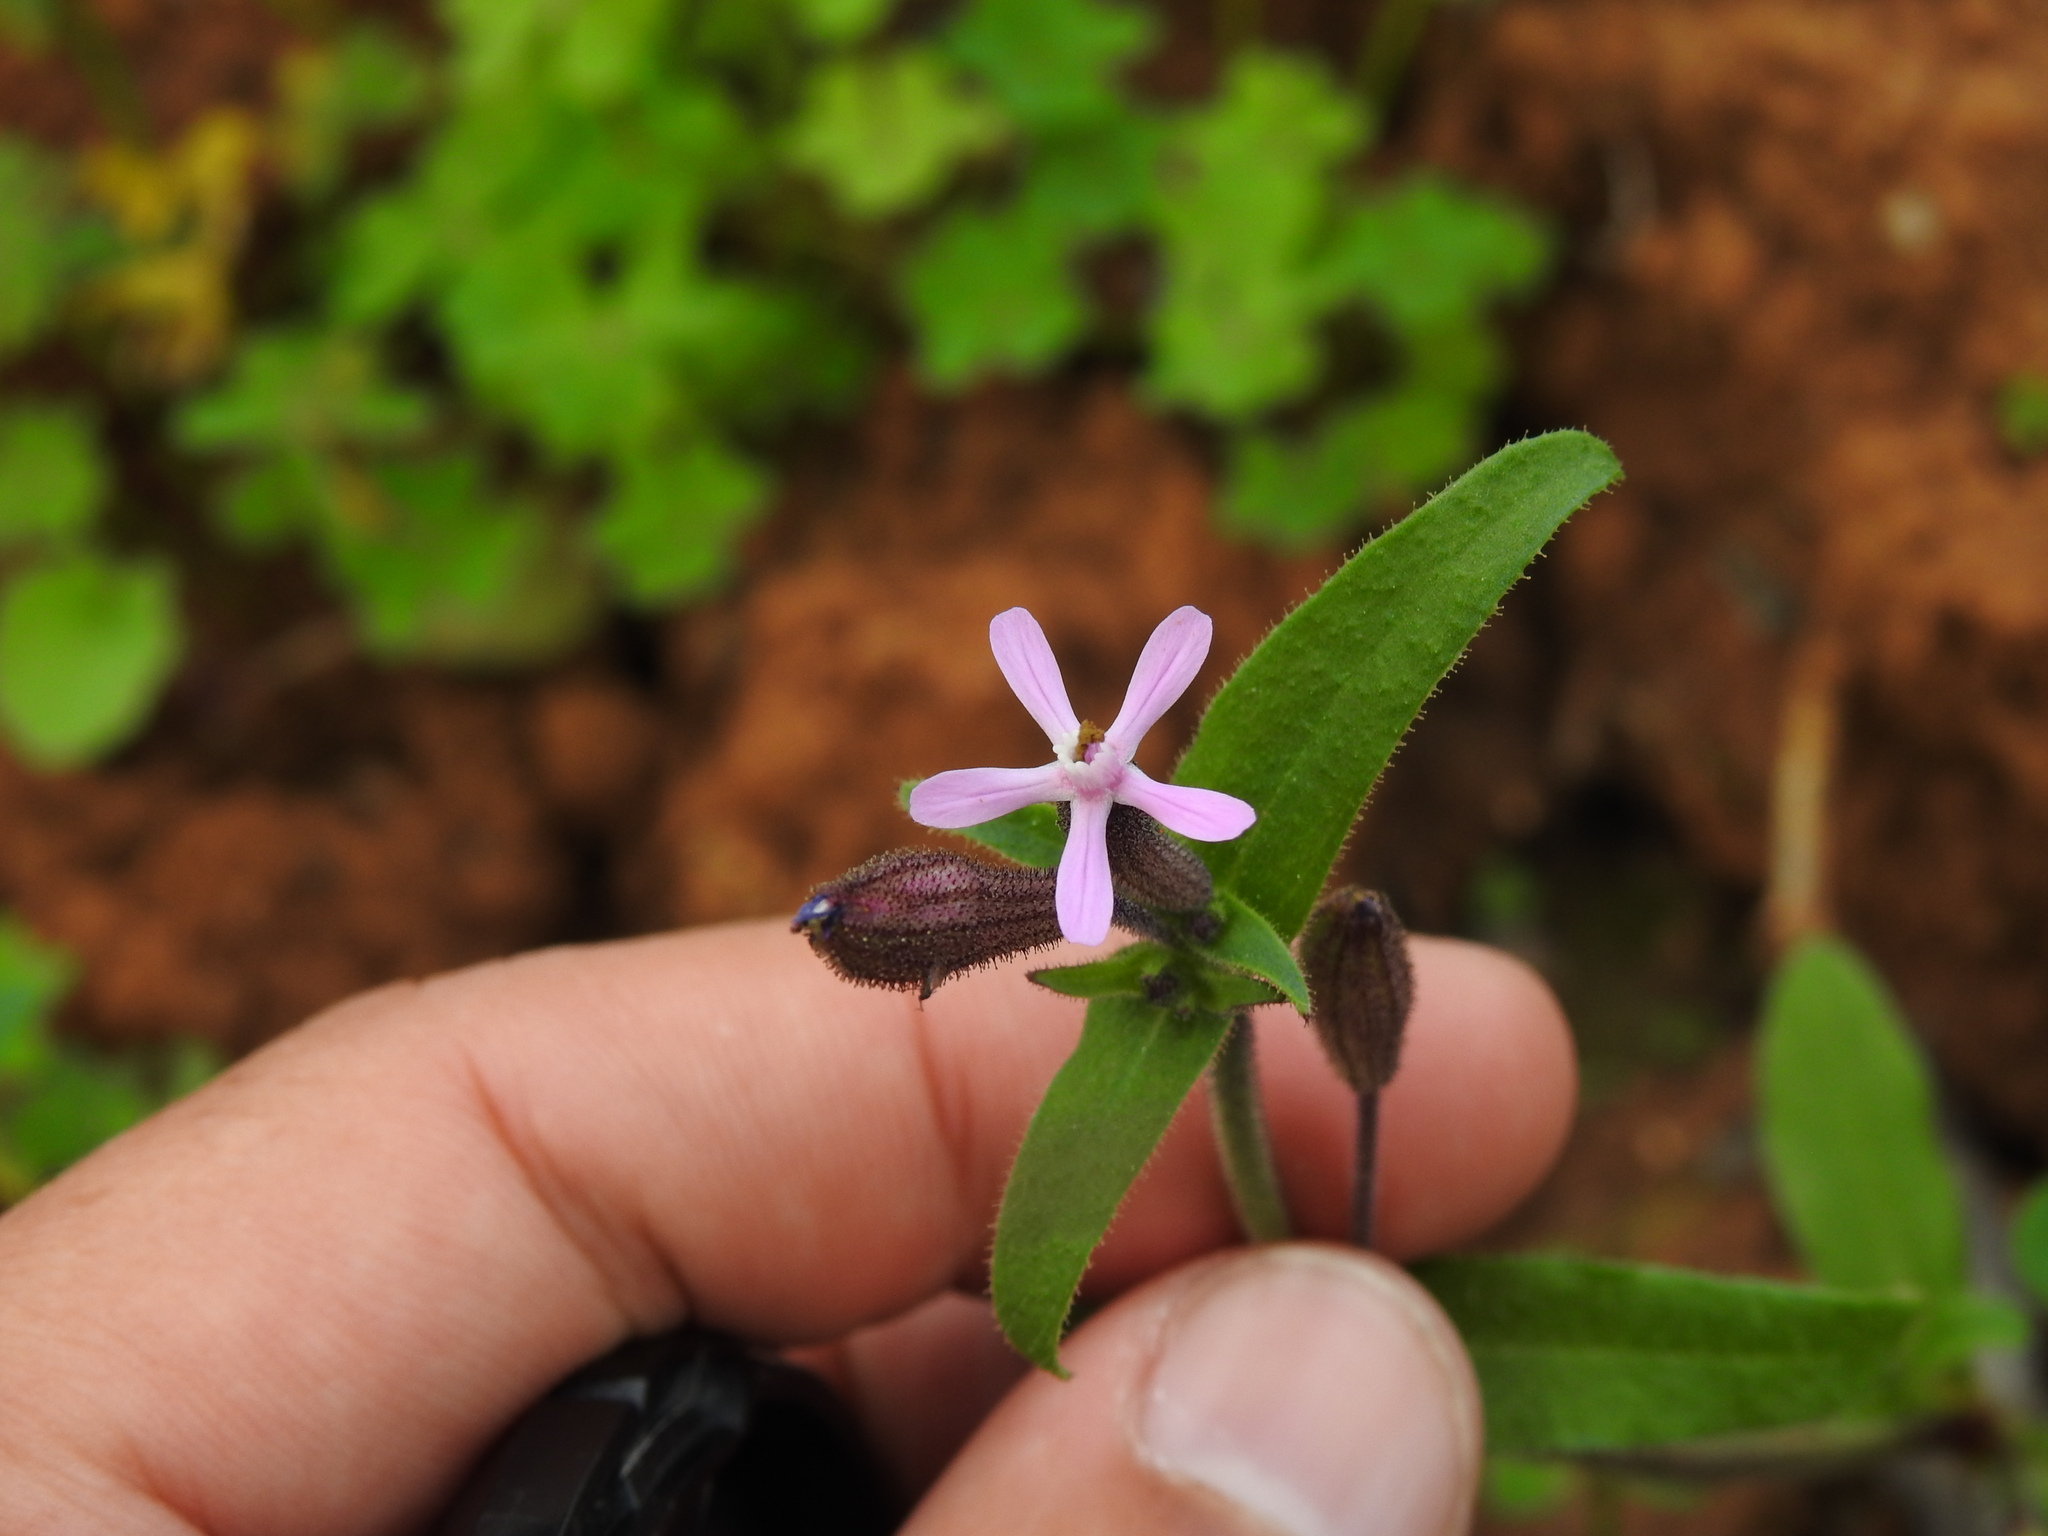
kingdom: Plantae
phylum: Tracheophyta
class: Magnoliopsida
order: Caryophyllales
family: Caryophyllaceae
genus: Silene
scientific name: Silene fuscata
